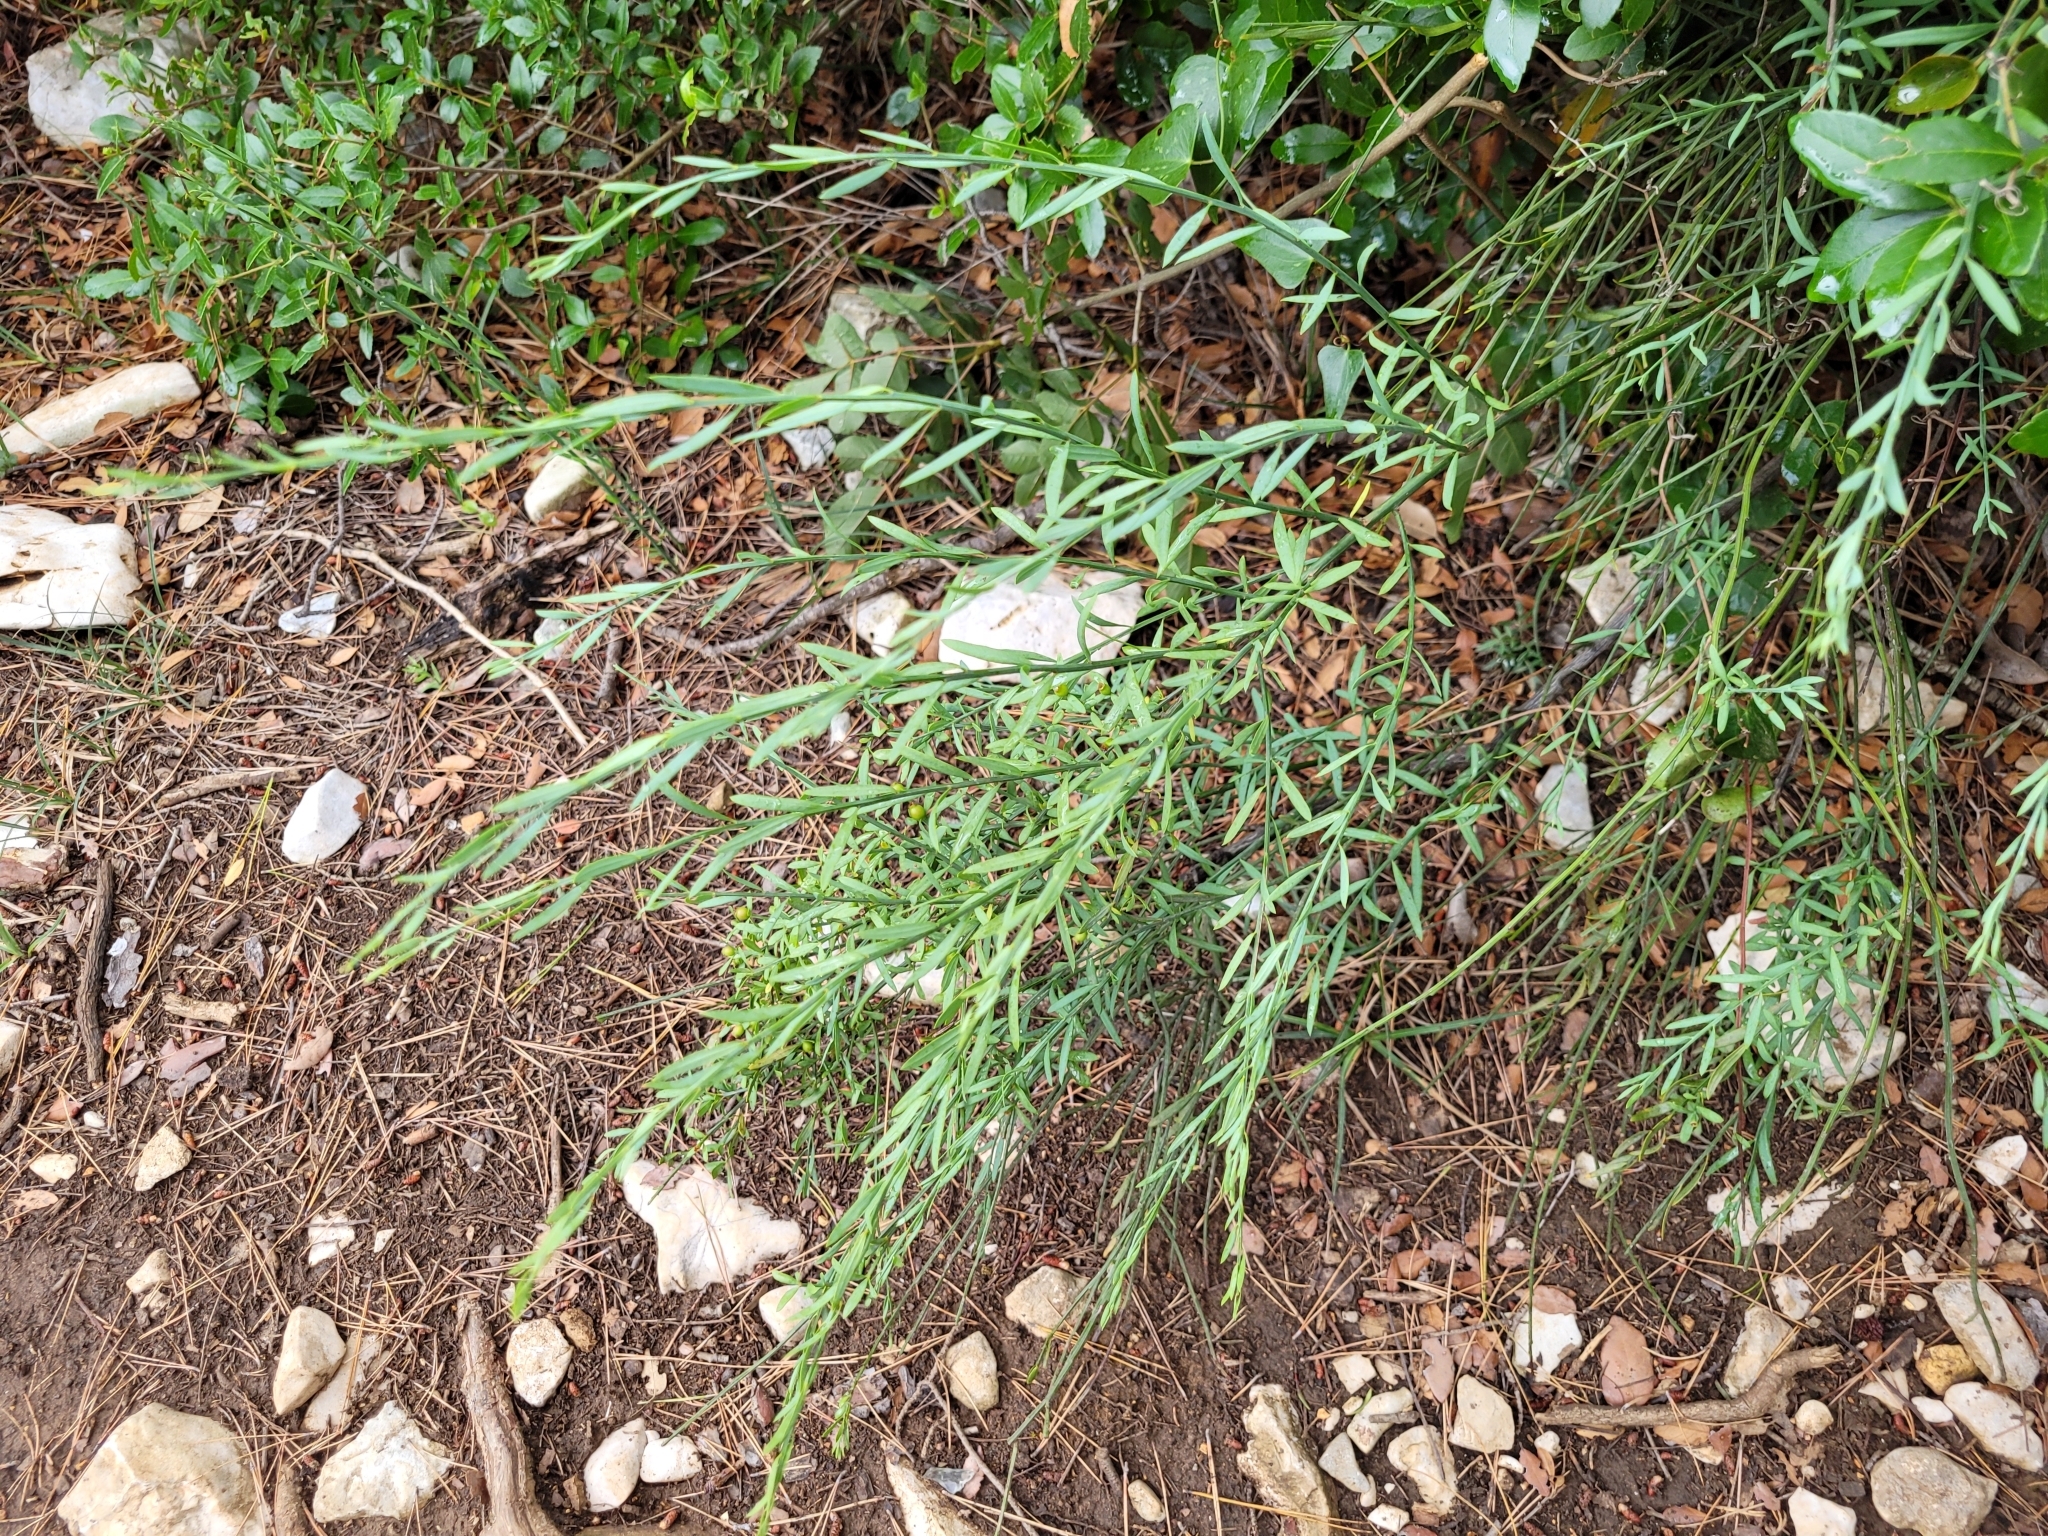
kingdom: Plantae
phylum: Tracheophyta
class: Magnoliopsida
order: Santalales
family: Santalaceae
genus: Osyris
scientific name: Osyris alba
